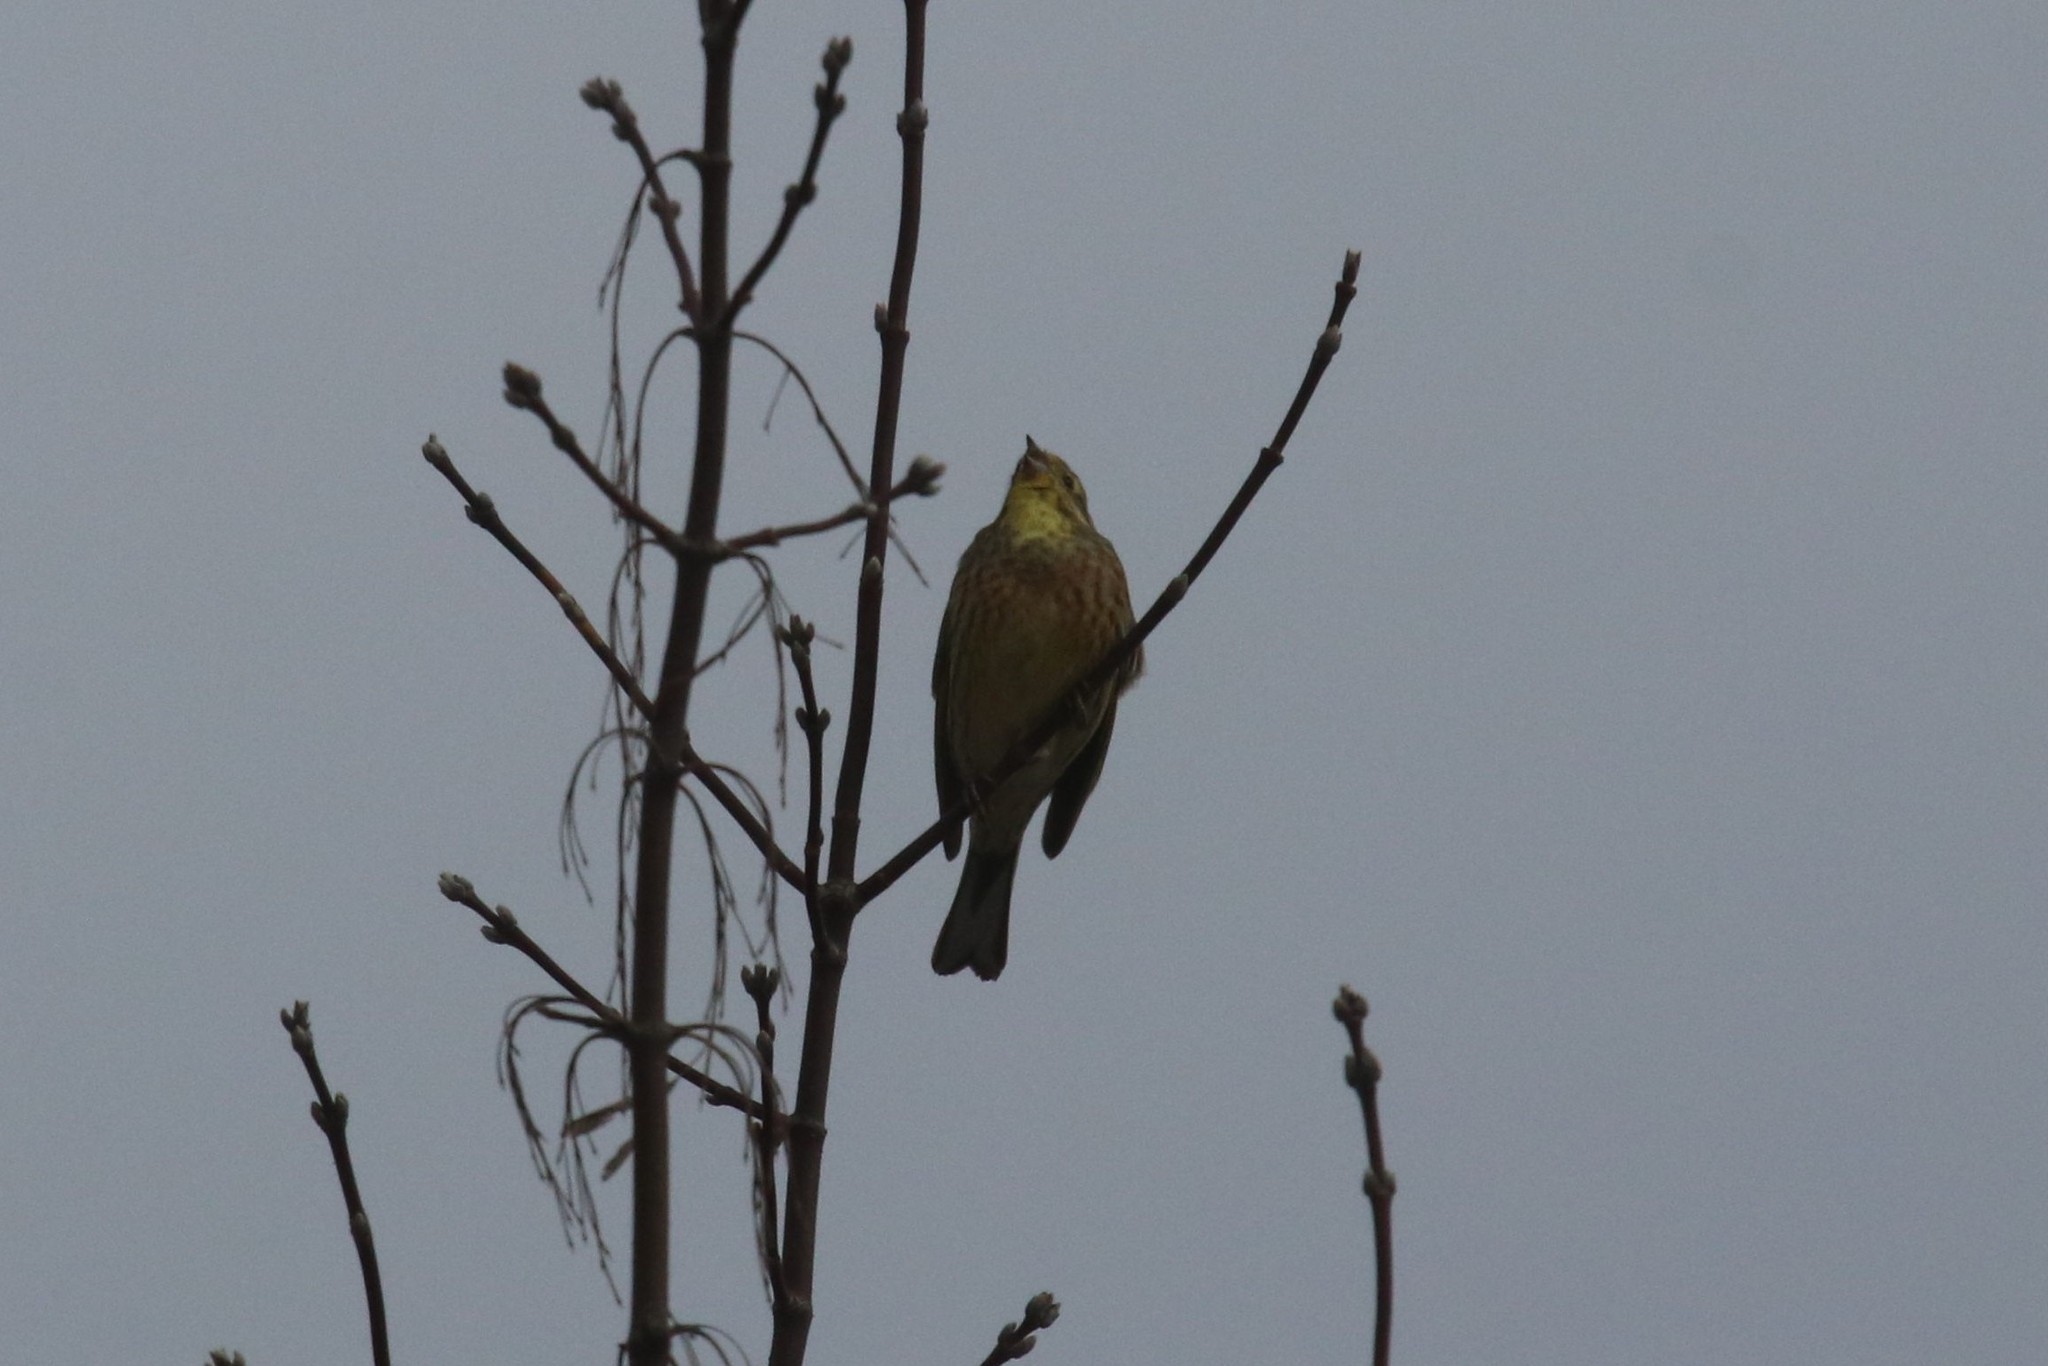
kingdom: Animalia
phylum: Chordata
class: Aves
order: Passeriformes
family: Emberizidae
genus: Emberiza
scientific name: Emberiza citrinella
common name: Yellowhammer
